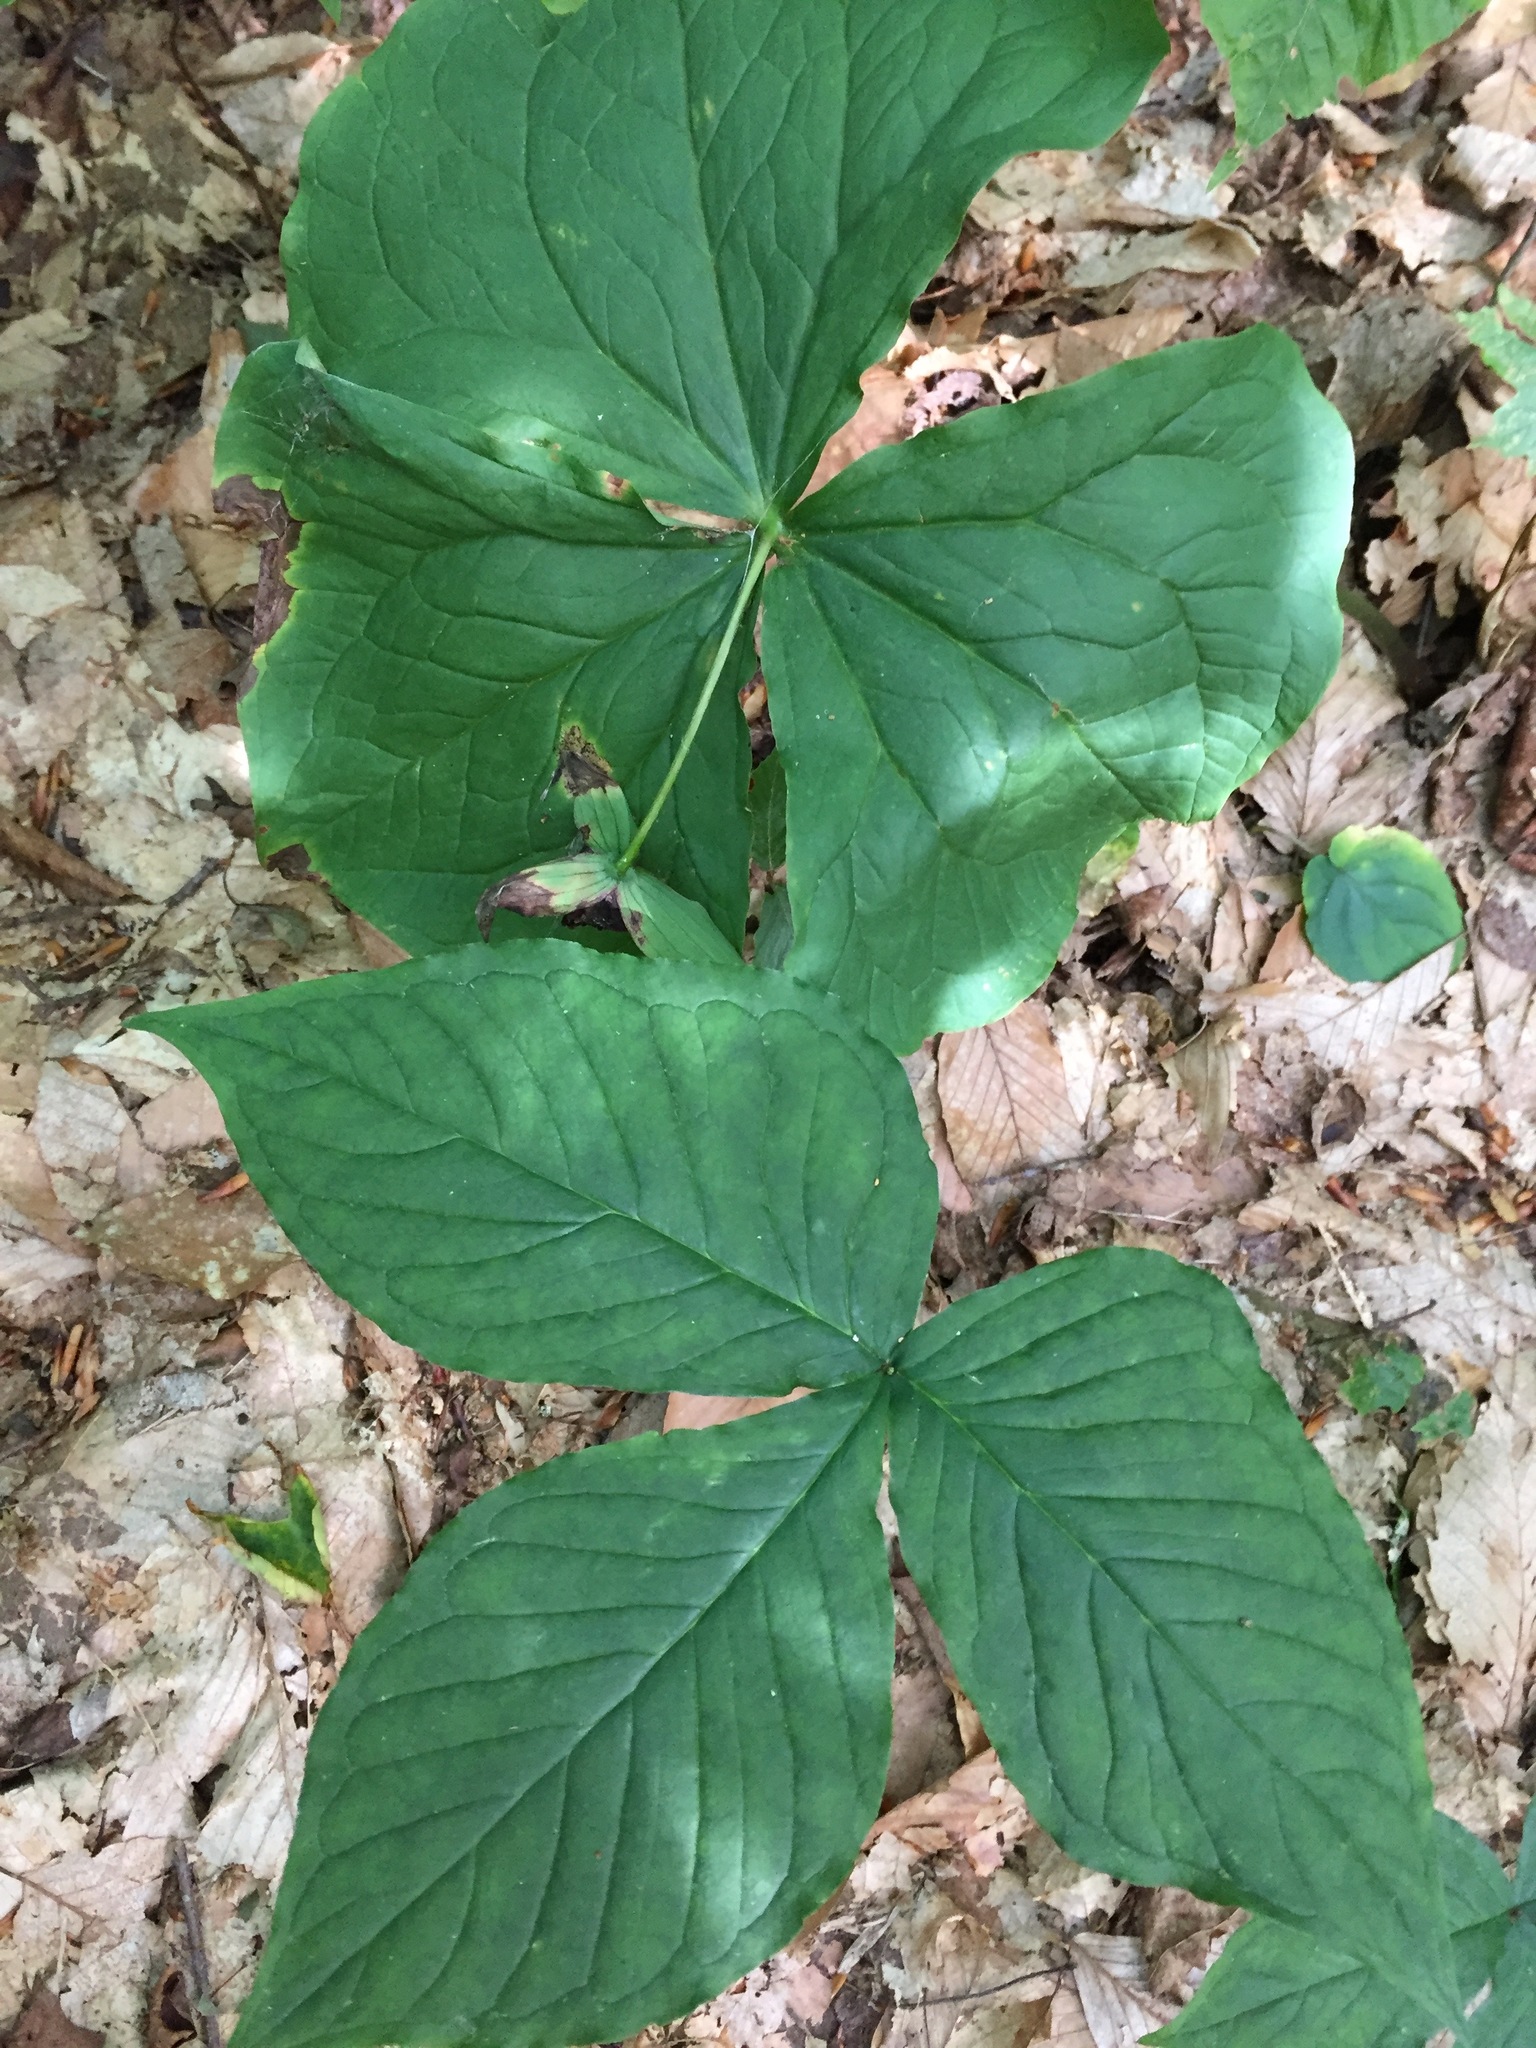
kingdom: Plantae
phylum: Tracheophyta
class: Liliopsida
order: Liliales
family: Melanthiaceae
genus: Trillium
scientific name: Trillium erectum
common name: Purple trillium
